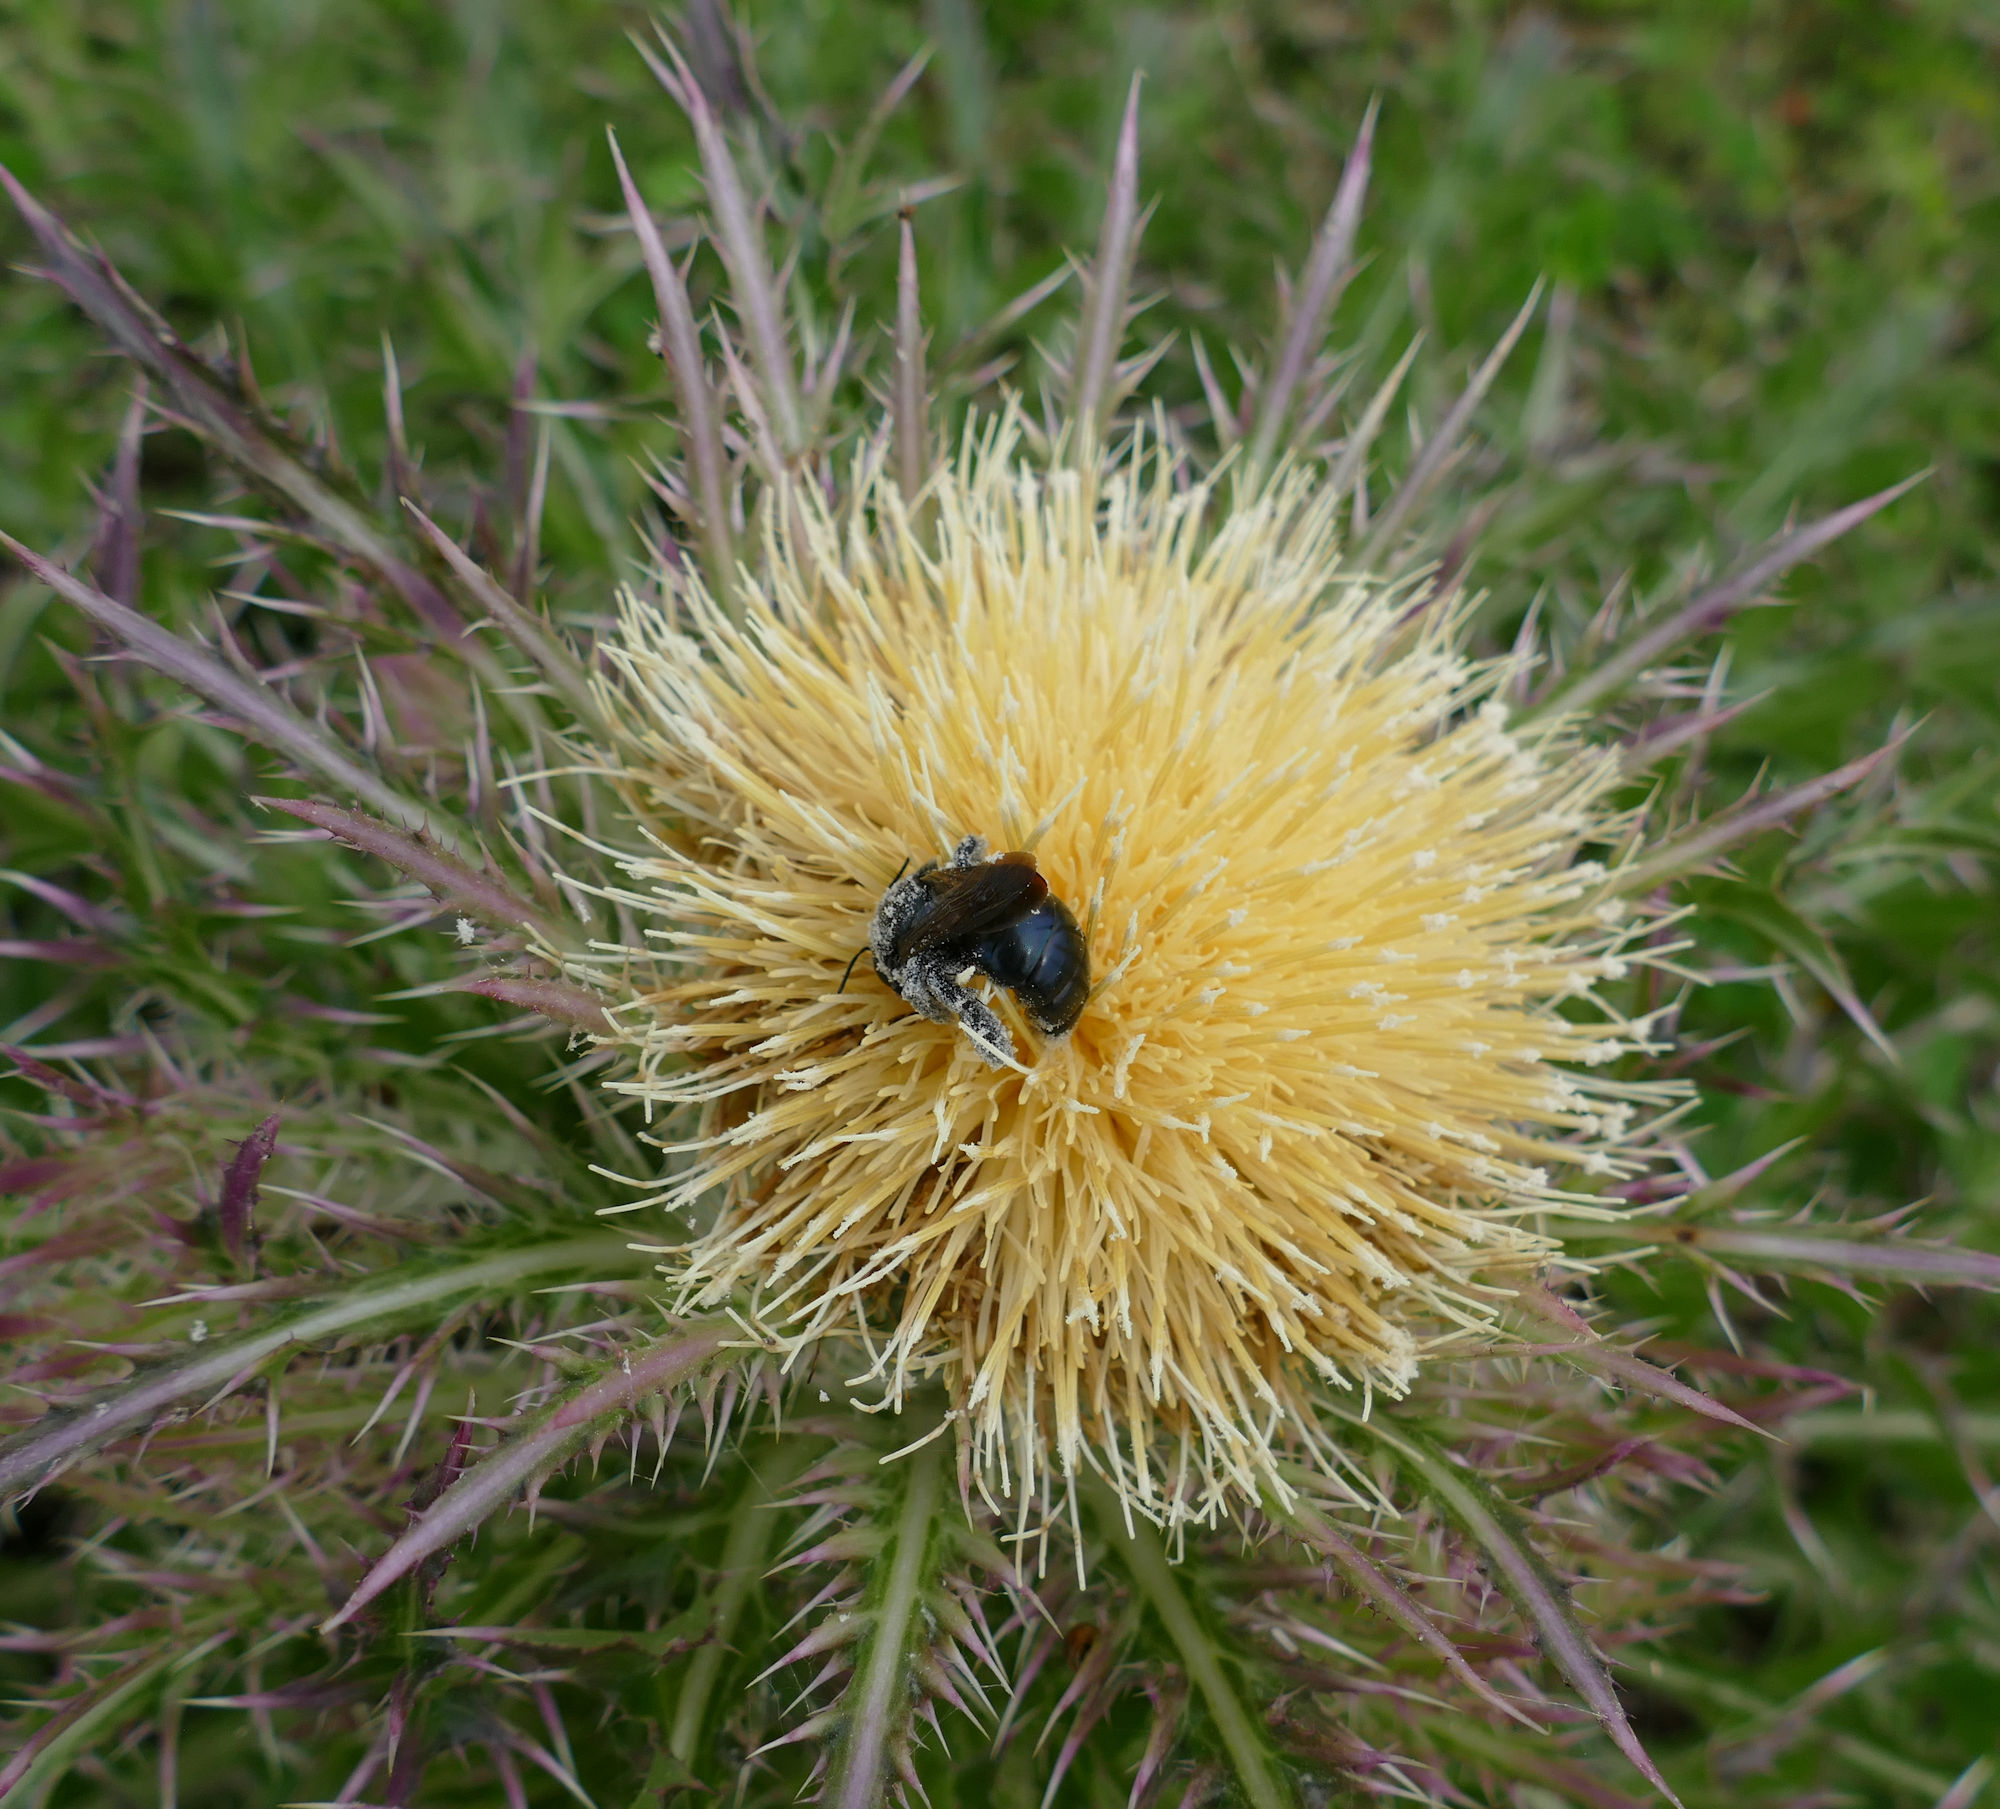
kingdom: Animalia
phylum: Arthropoda
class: Insecta
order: Hymenoptera
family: Apidae
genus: Xylocopa
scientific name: Xylocopa micans
